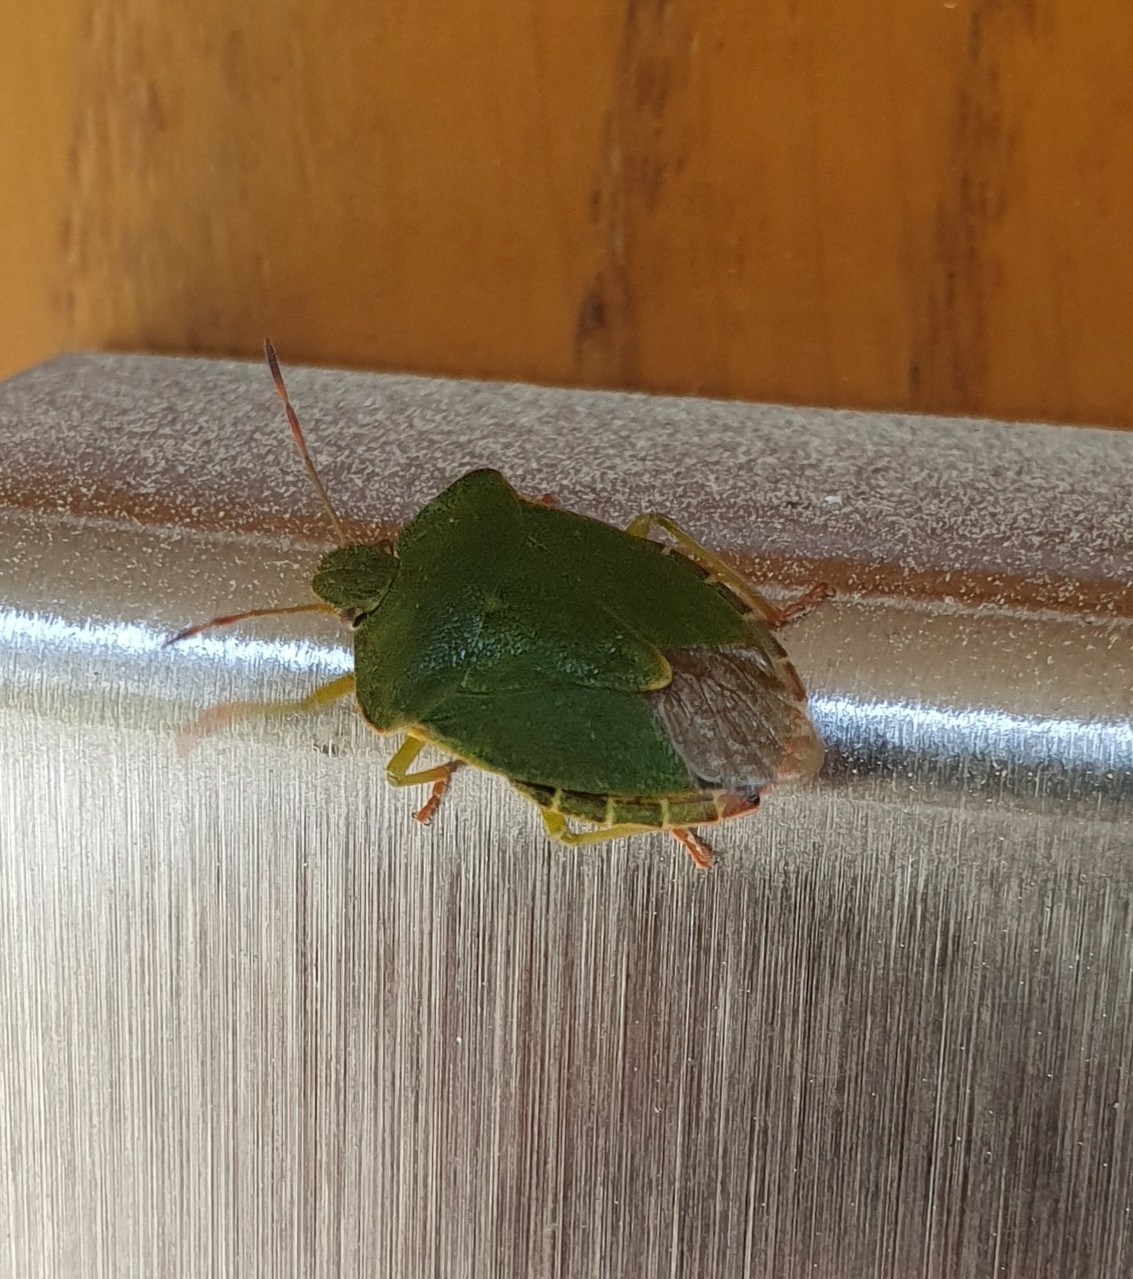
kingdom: Animalia
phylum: Arthropoda
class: Insecta
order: Hemiptera
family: Pentatomidae
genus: Palomena
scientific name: Palomena prasina
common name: Green shieldbug
